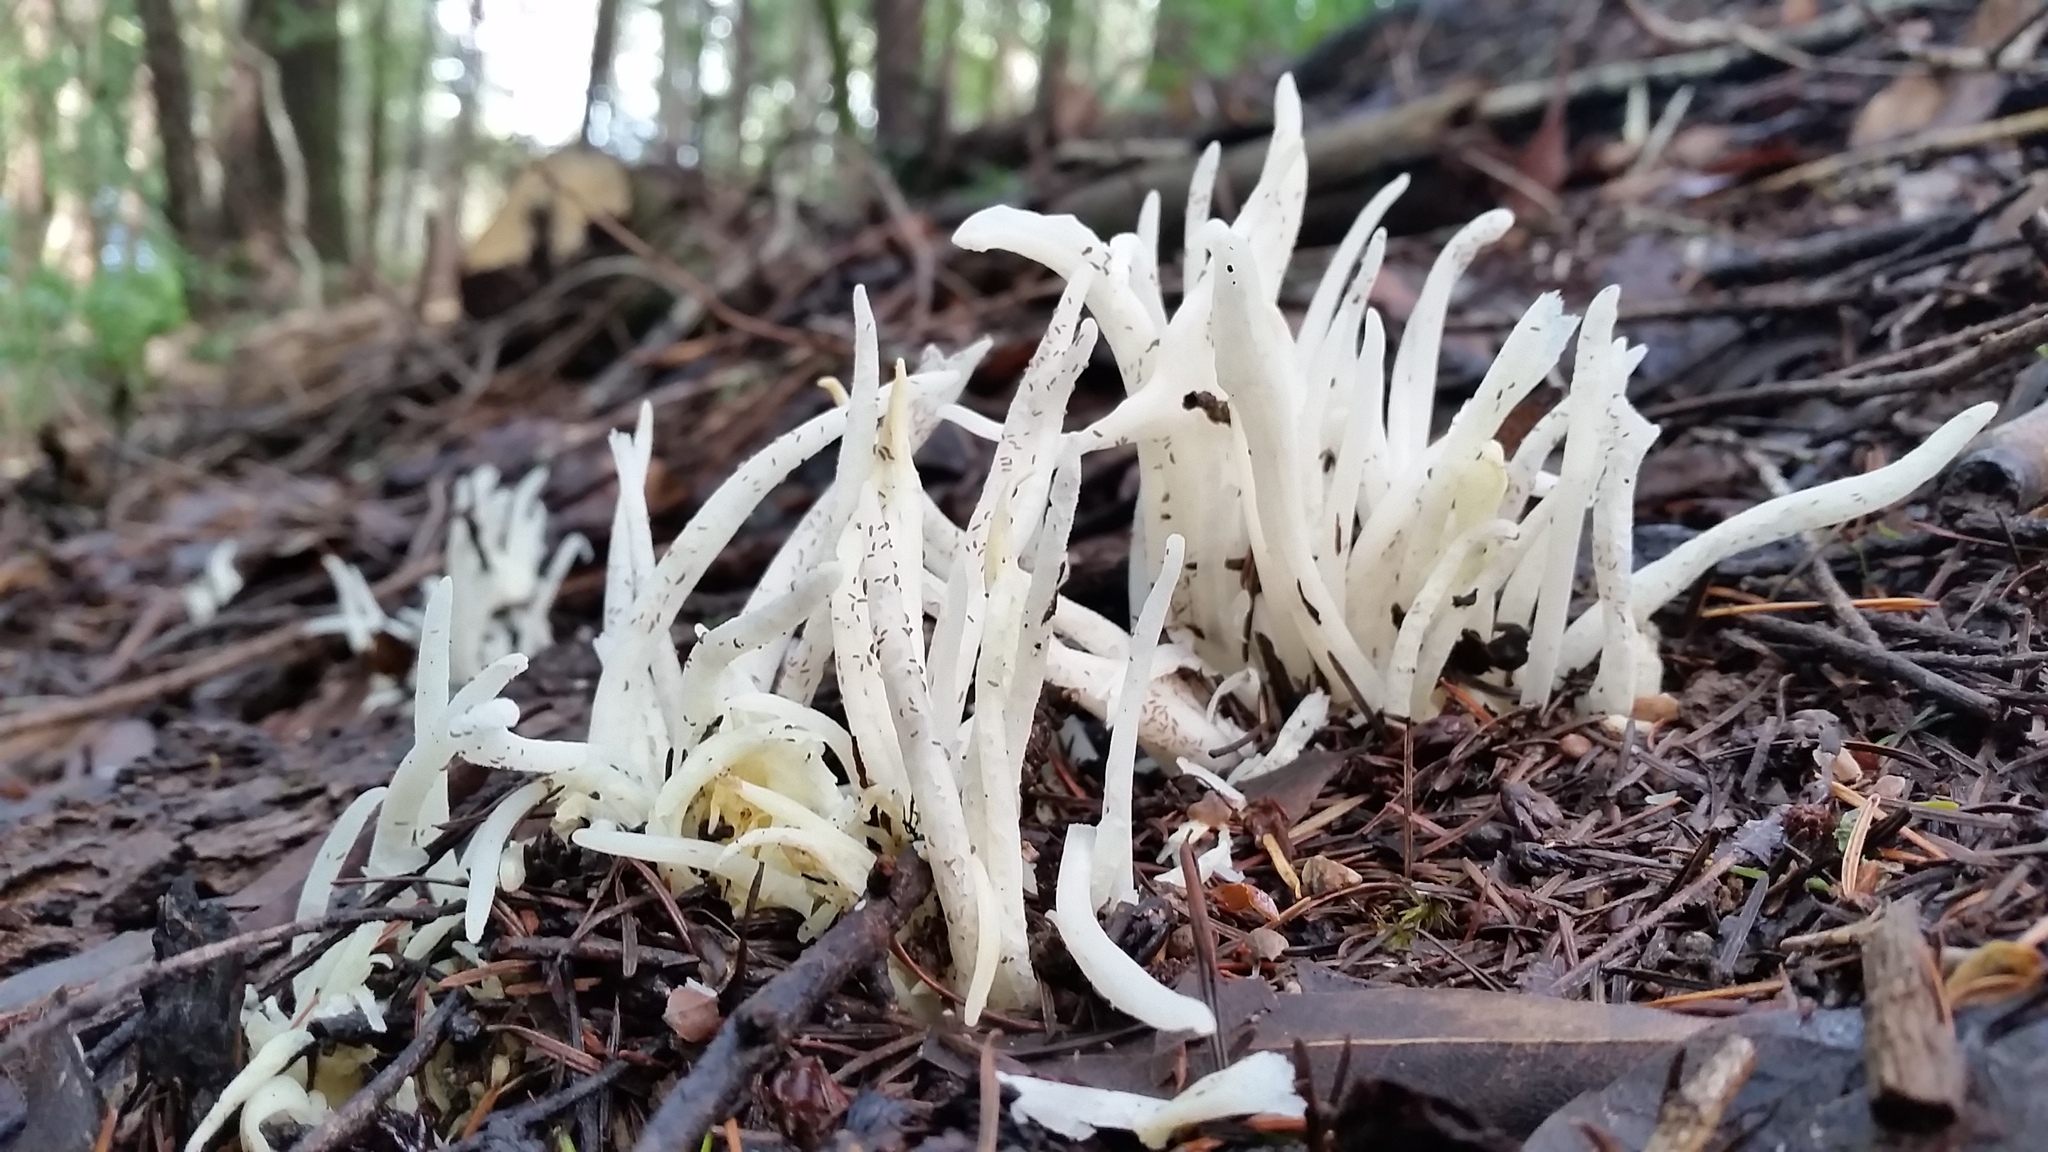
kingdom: Fungi
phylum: Basidiomycota
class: Agaricomycetes
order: Agaricales
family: Clavariaceae
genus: Clavaria
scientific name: Clavaria fragilis
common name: White spindles
